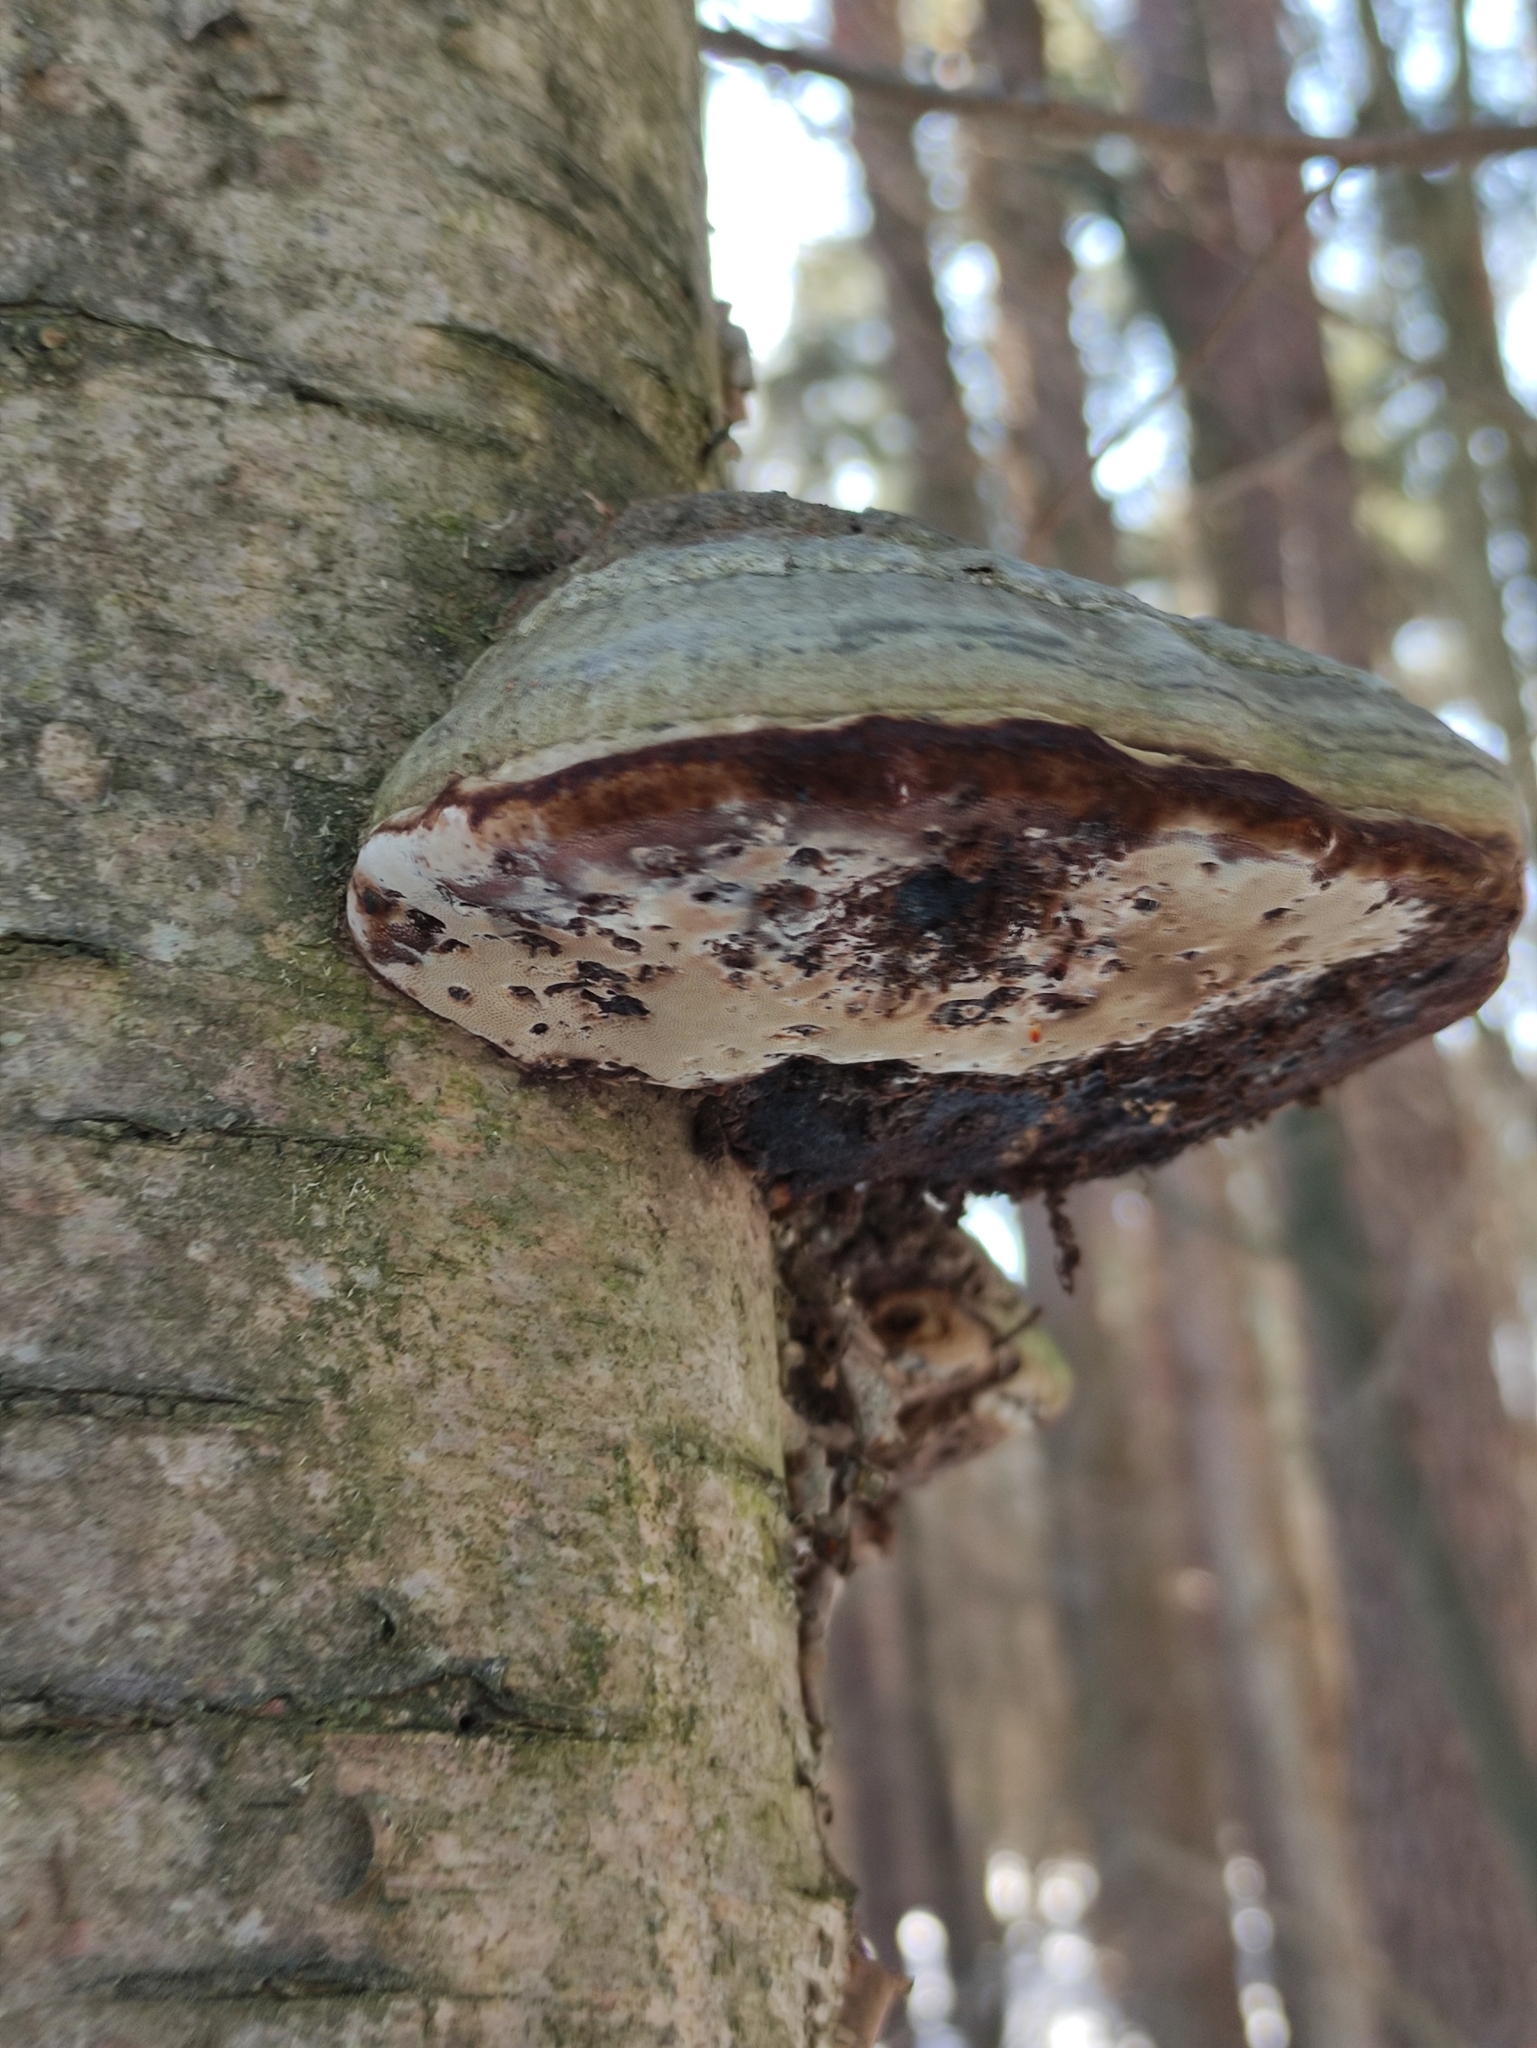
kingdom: Fungi
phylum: Basidiomycota
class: Agaricomycetes
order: Polyporales
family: Polyporaceae
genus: Fomes
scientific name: Fomes fomentarius
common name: Hoof fungus
